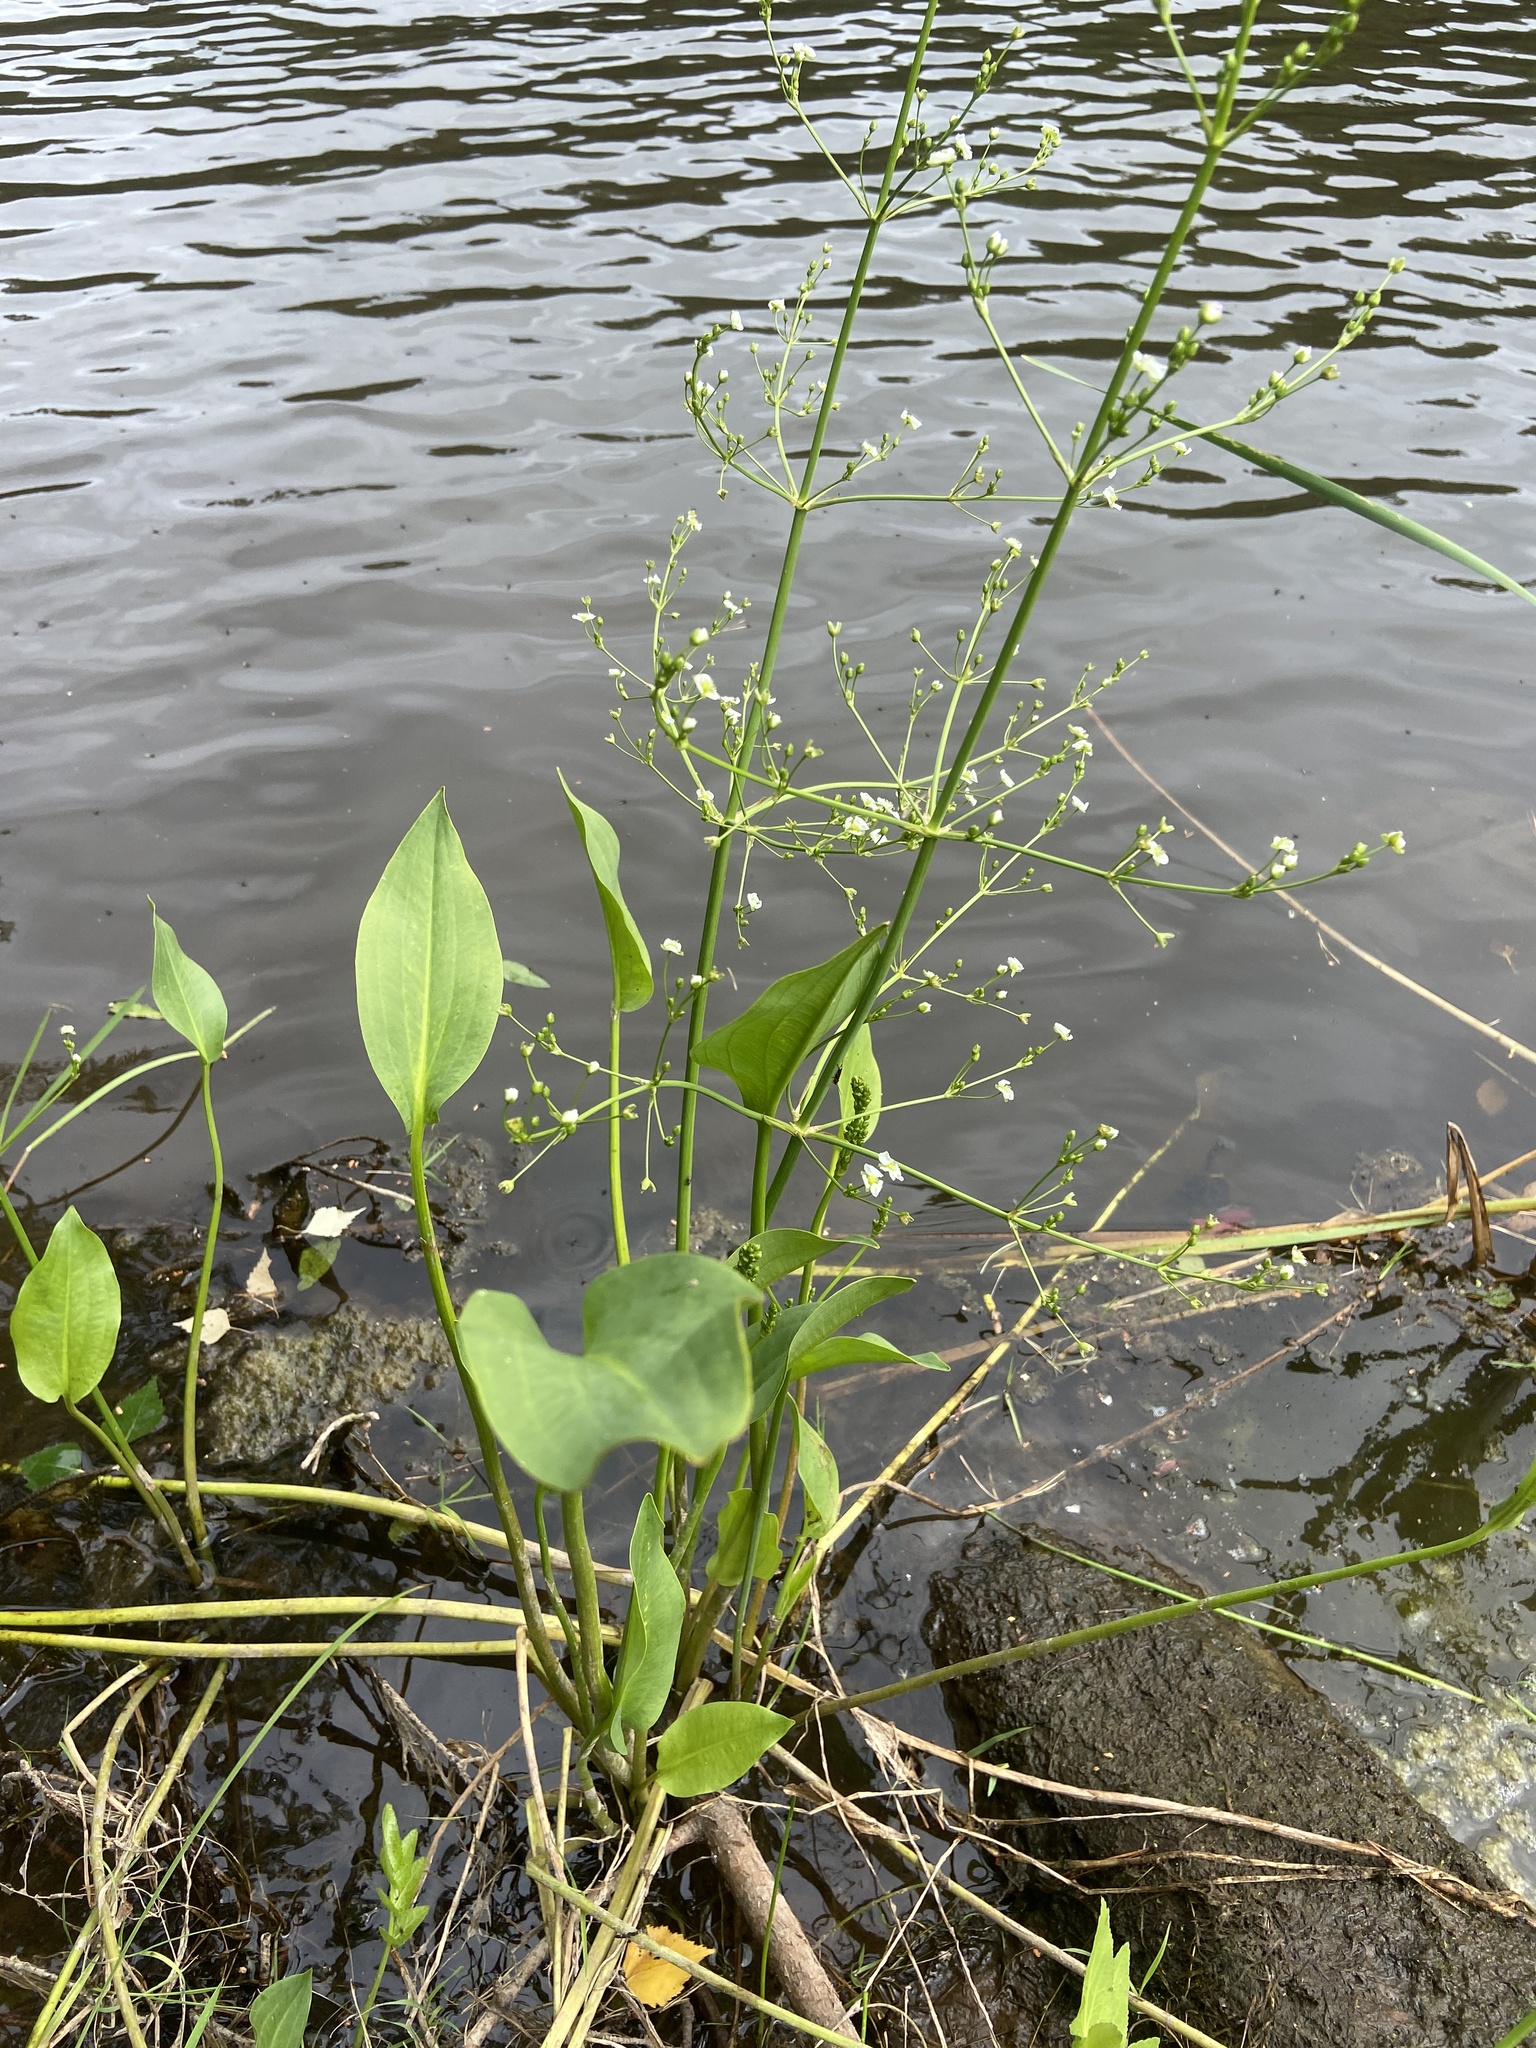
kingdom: Plantae
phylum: Tracheophyta
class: Liliopsida
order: Alismatales
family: Alismataceae
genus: Alisma
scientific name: Alisma plantago-aquatica
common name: Water-plantain
